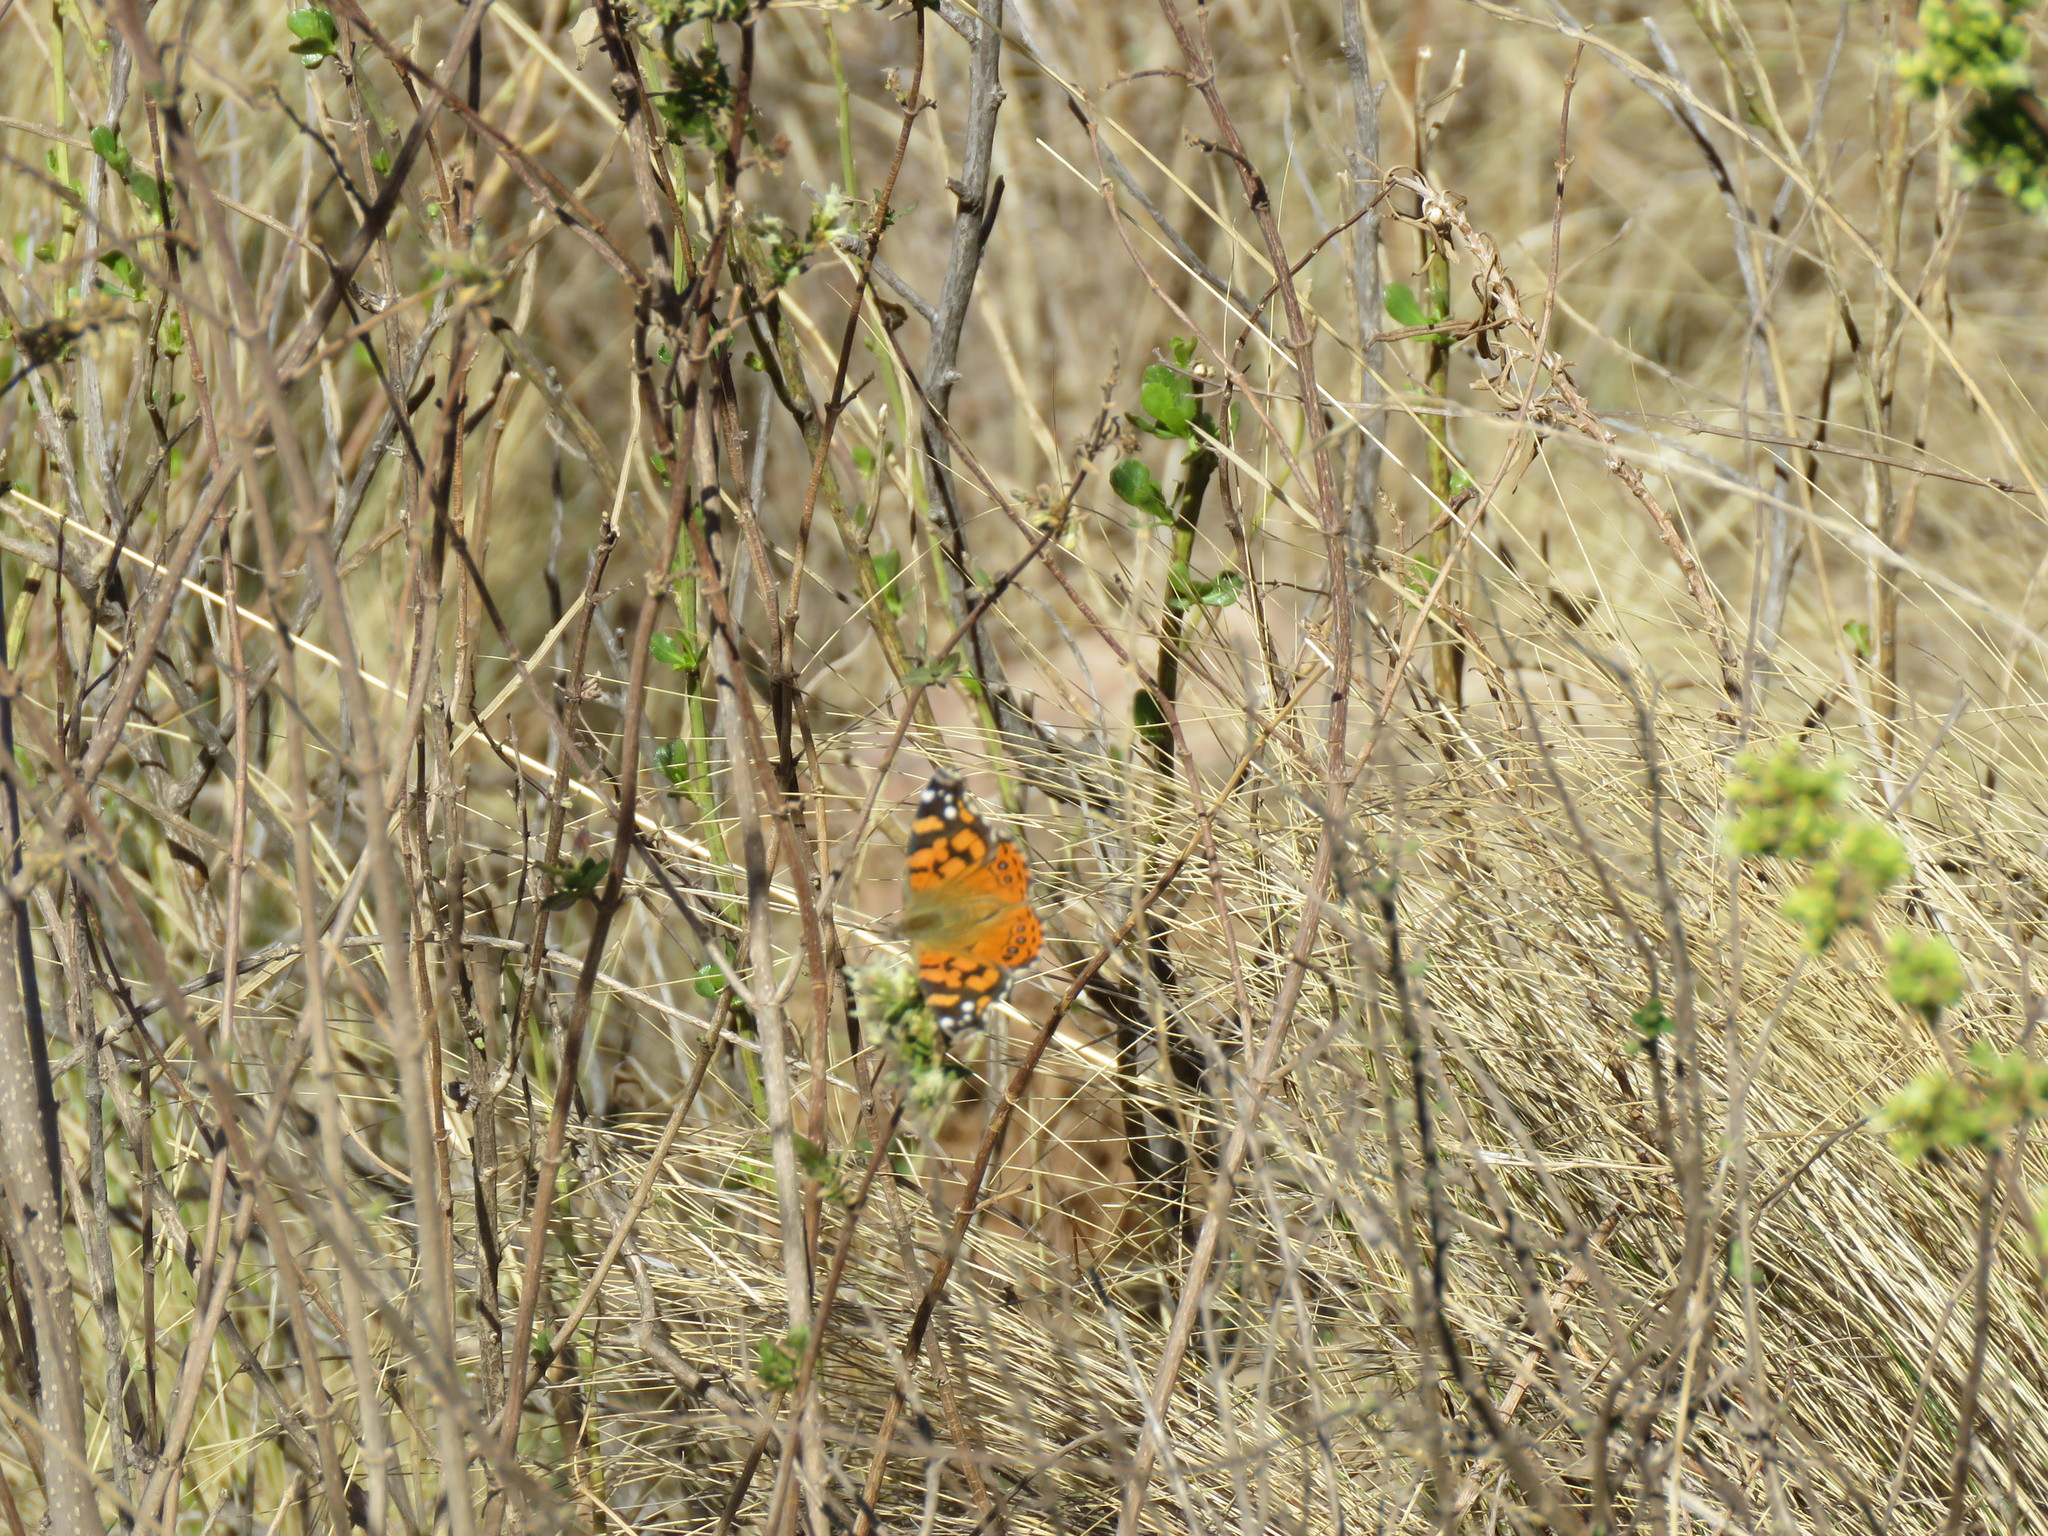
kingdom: Animalia
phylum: Arthropoda
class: Insecta
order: Lepidoptera
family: Nymphalidae
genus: Vanessa
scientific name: Vanessa carye
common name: Subtropical lady
